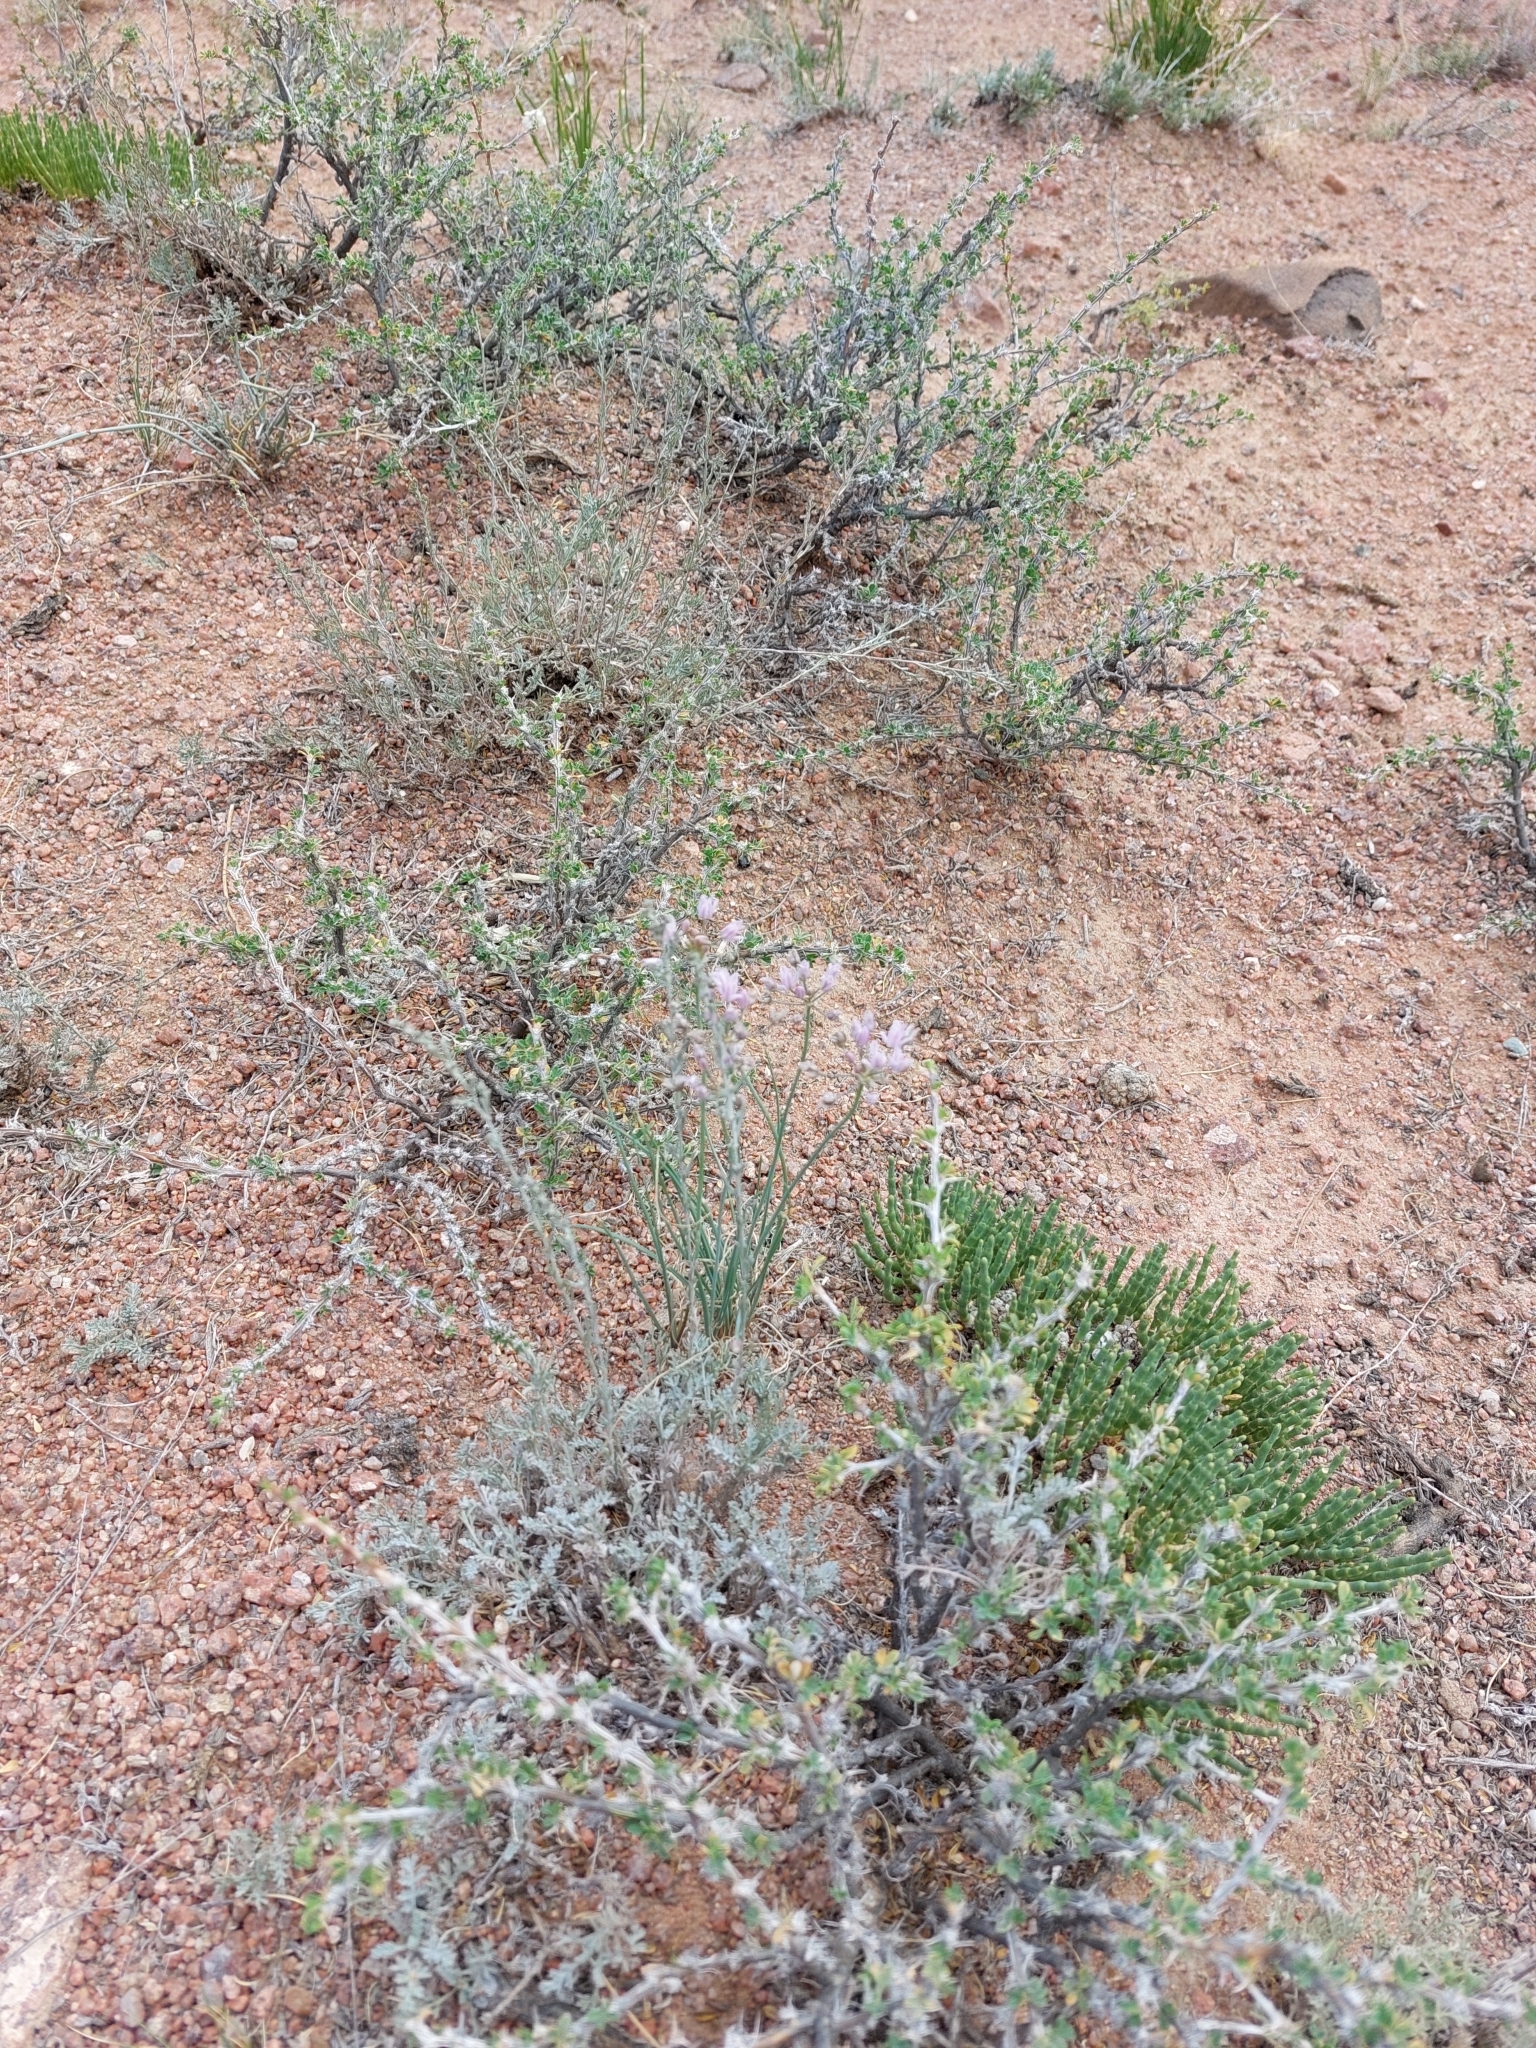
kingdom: Plantae
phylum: Tracheophyta
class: Liliopsida
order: Asparagales
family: Amaryllidaceae
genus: Allium
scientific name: Allium weschniakowii
